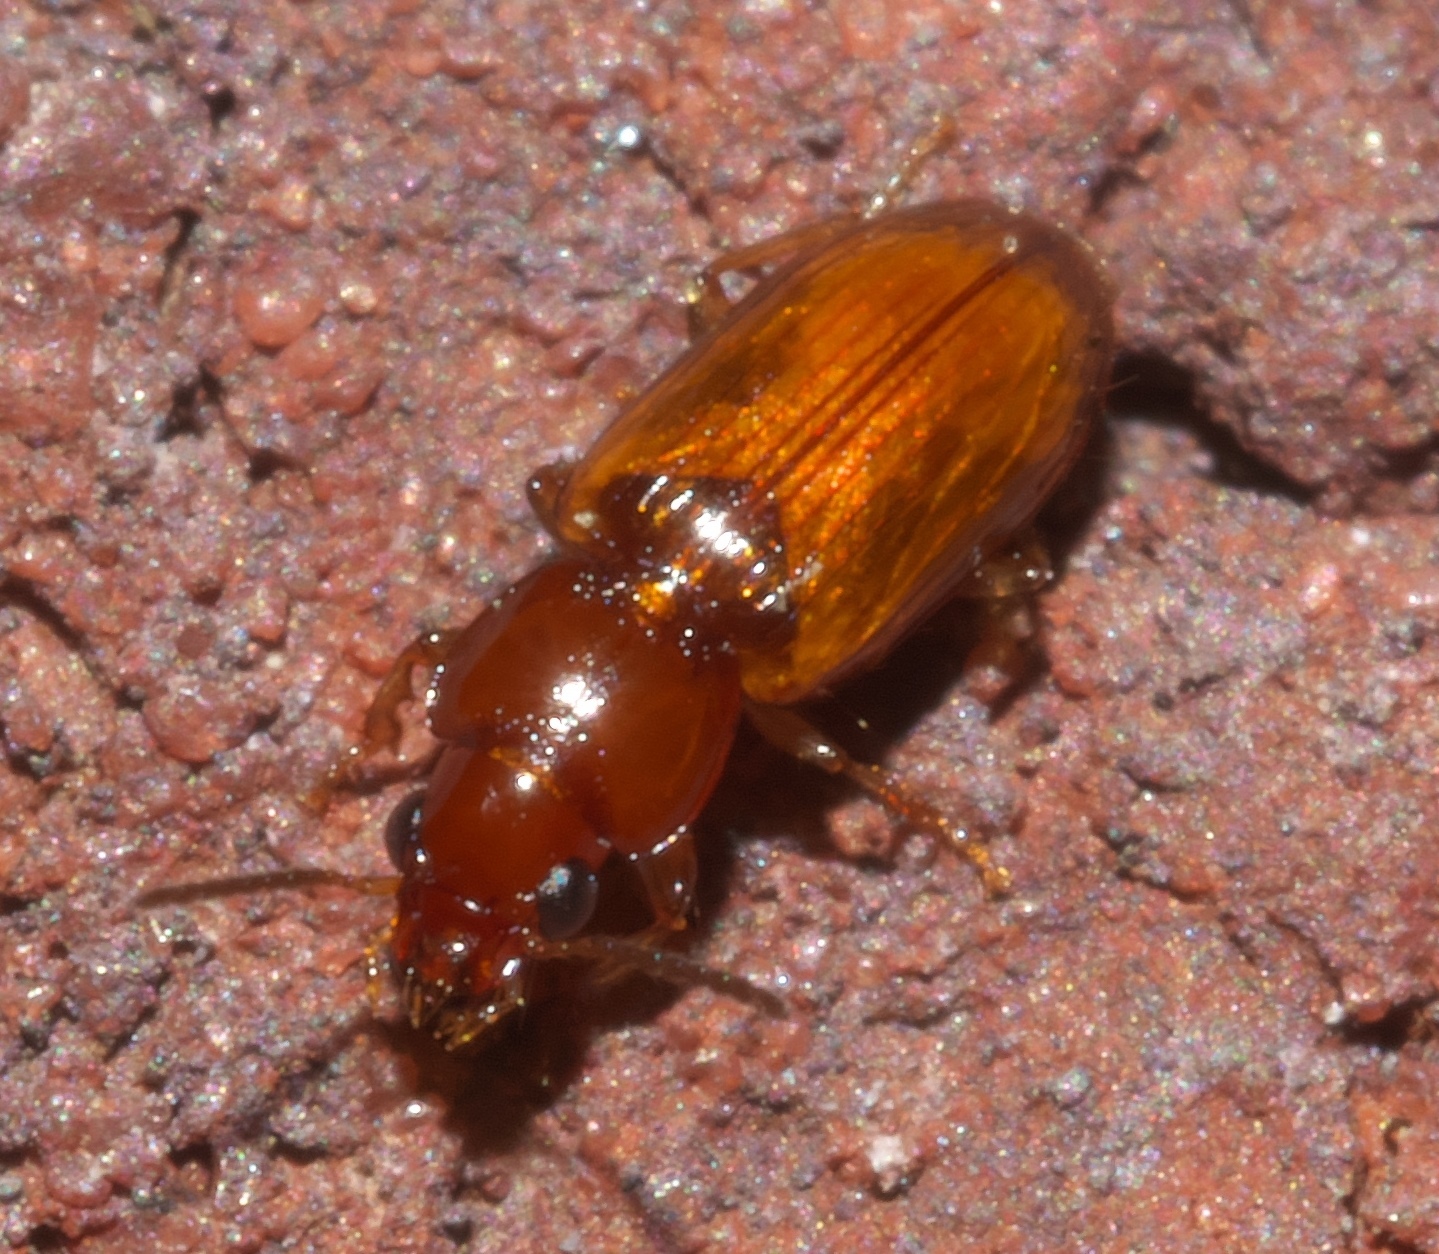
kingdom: Animalia
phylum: Arthropoda
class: Insecta
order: Coleoptera
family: Carabidae
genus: Acupalpus
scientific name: Acupalpus testaceus
